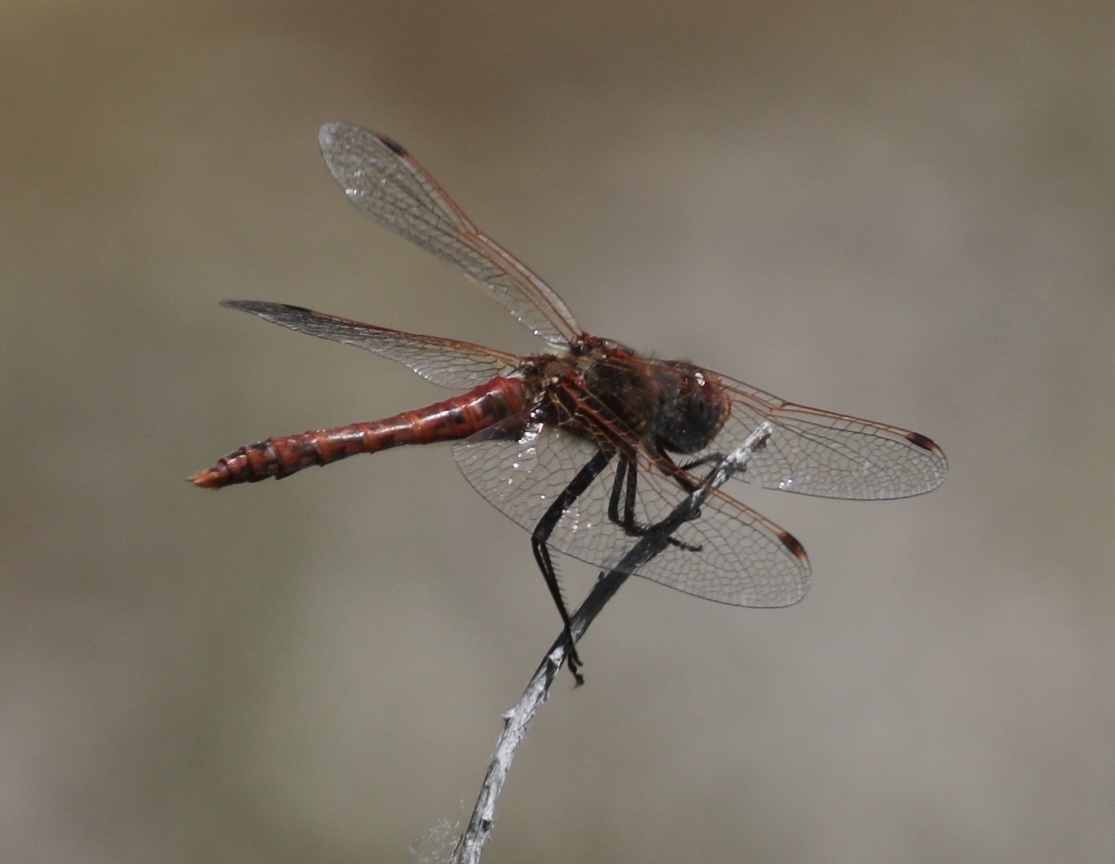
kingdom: Animalia
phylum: Arthropoda
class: Insecta
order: Odonata
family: Libellulidae
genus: Sympetrum
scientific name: Sympetrum corruptum
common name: Variegated meadowhawk
